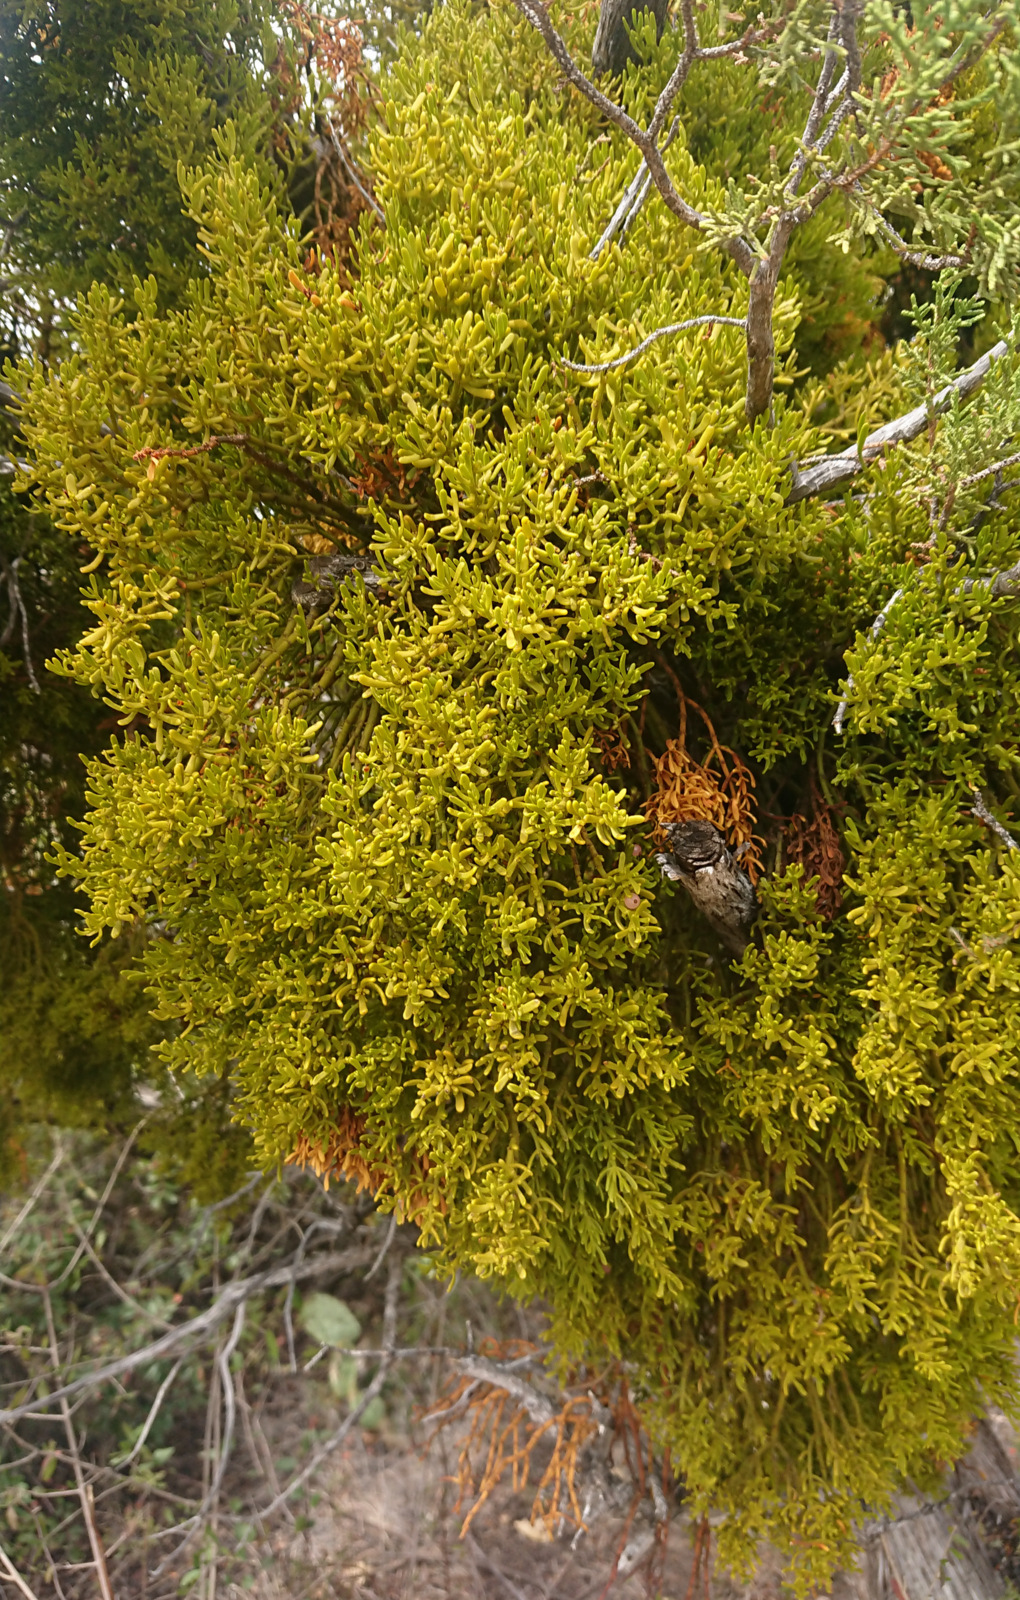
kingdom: Plantae
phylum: Tracheophyta
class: Magnoliopsida
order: Santalales
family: Viscaceae
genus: Phoradendron
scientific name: Phoradendron bolleanum
